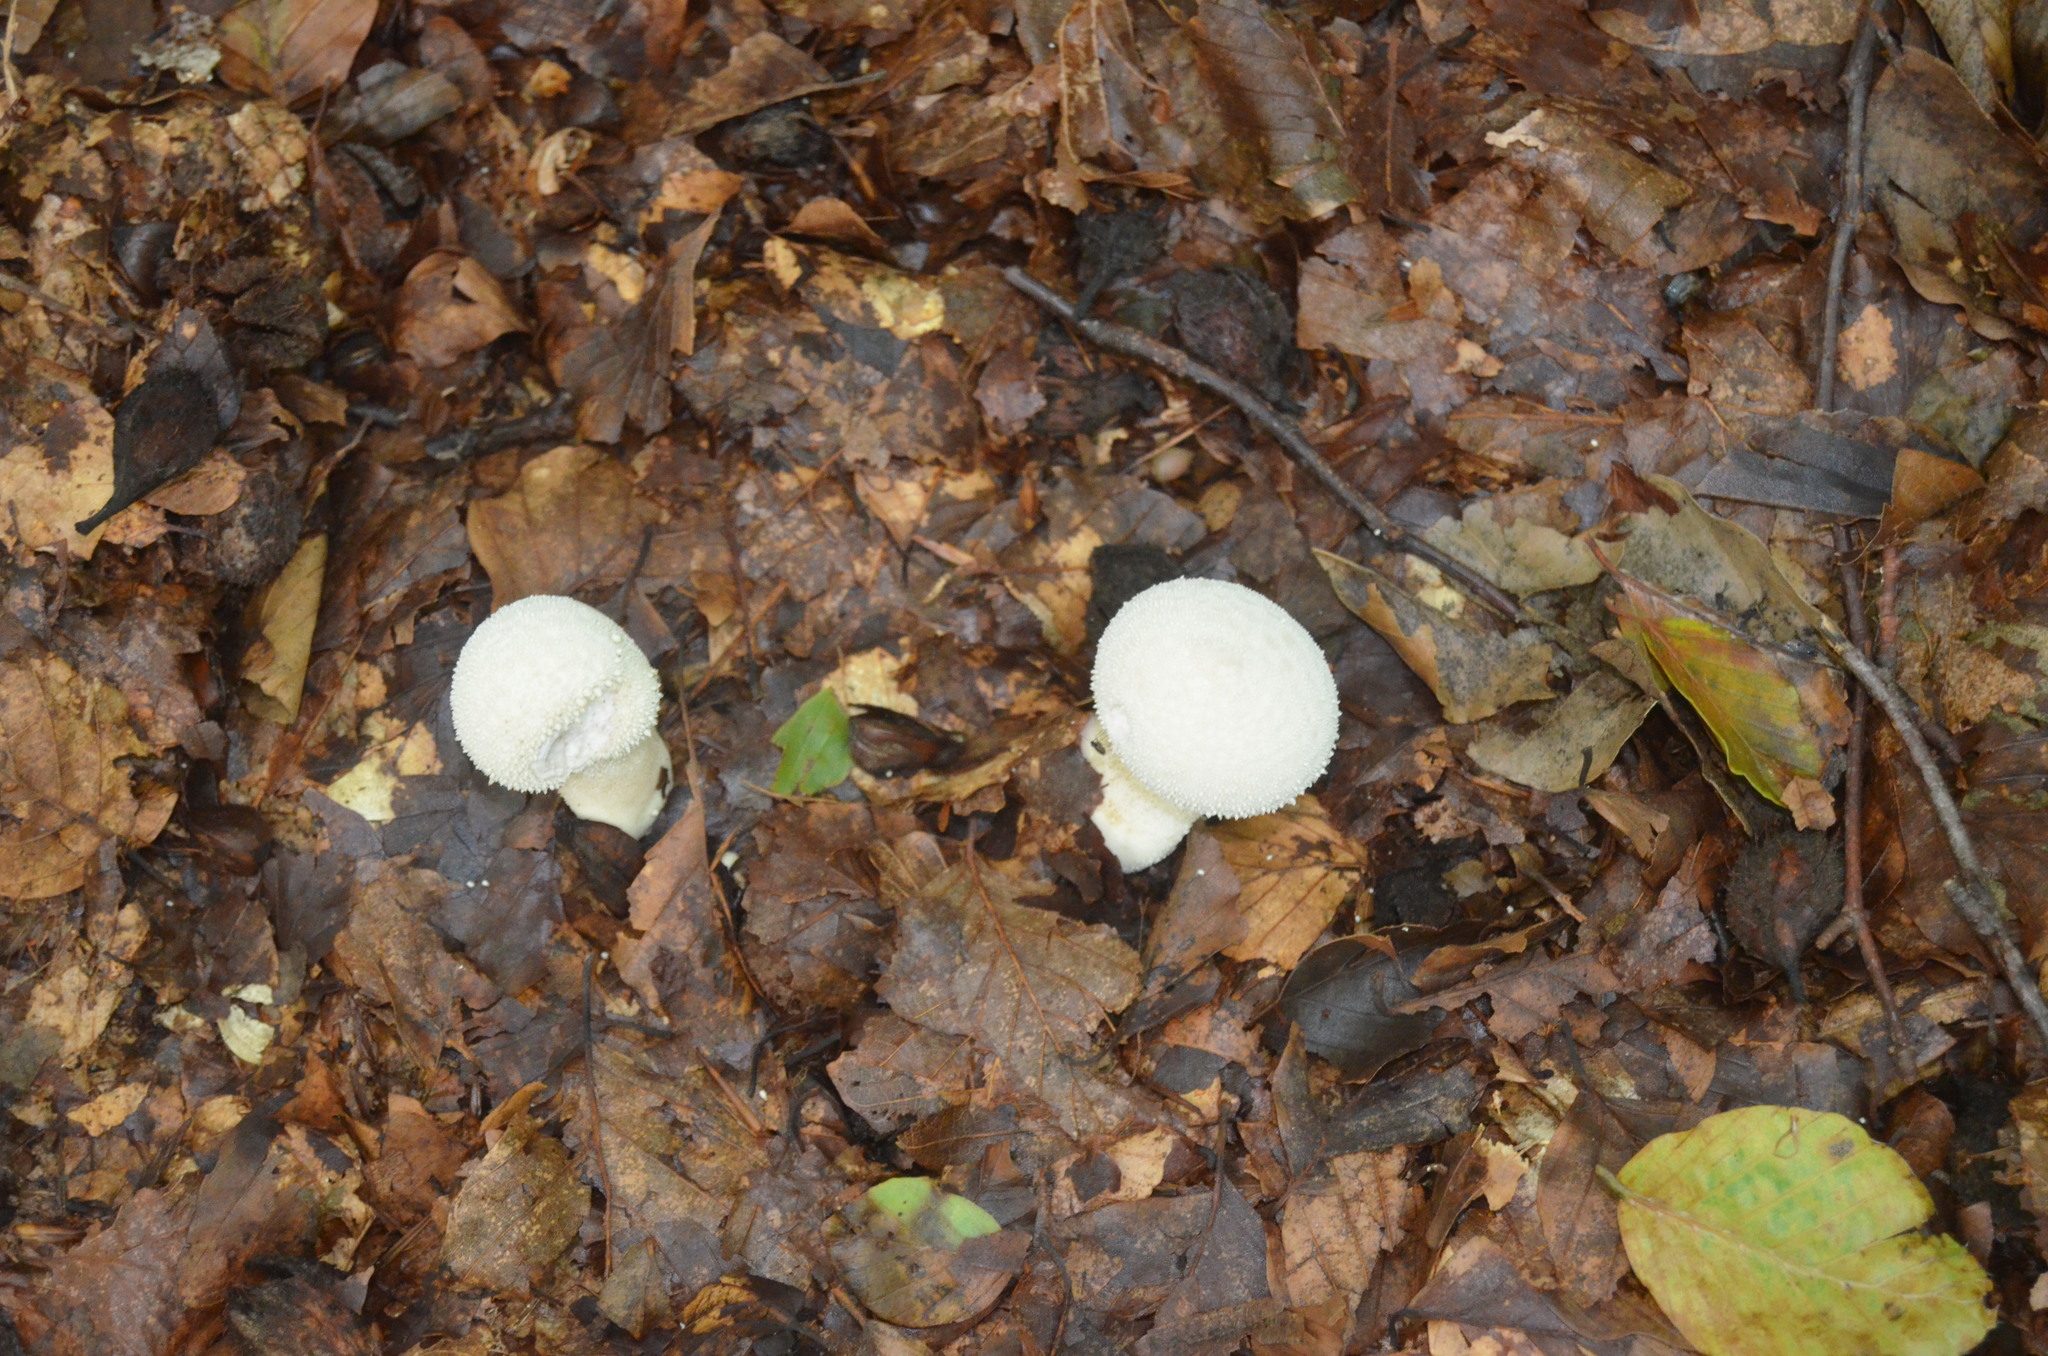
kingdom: Fungi
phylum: Basidiomycota
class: Agaricomycetes
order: Agaricales
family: Lycoperdaceae
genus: Lycoperdon
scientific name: Lycoperdon perlatum
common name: Common puffball
